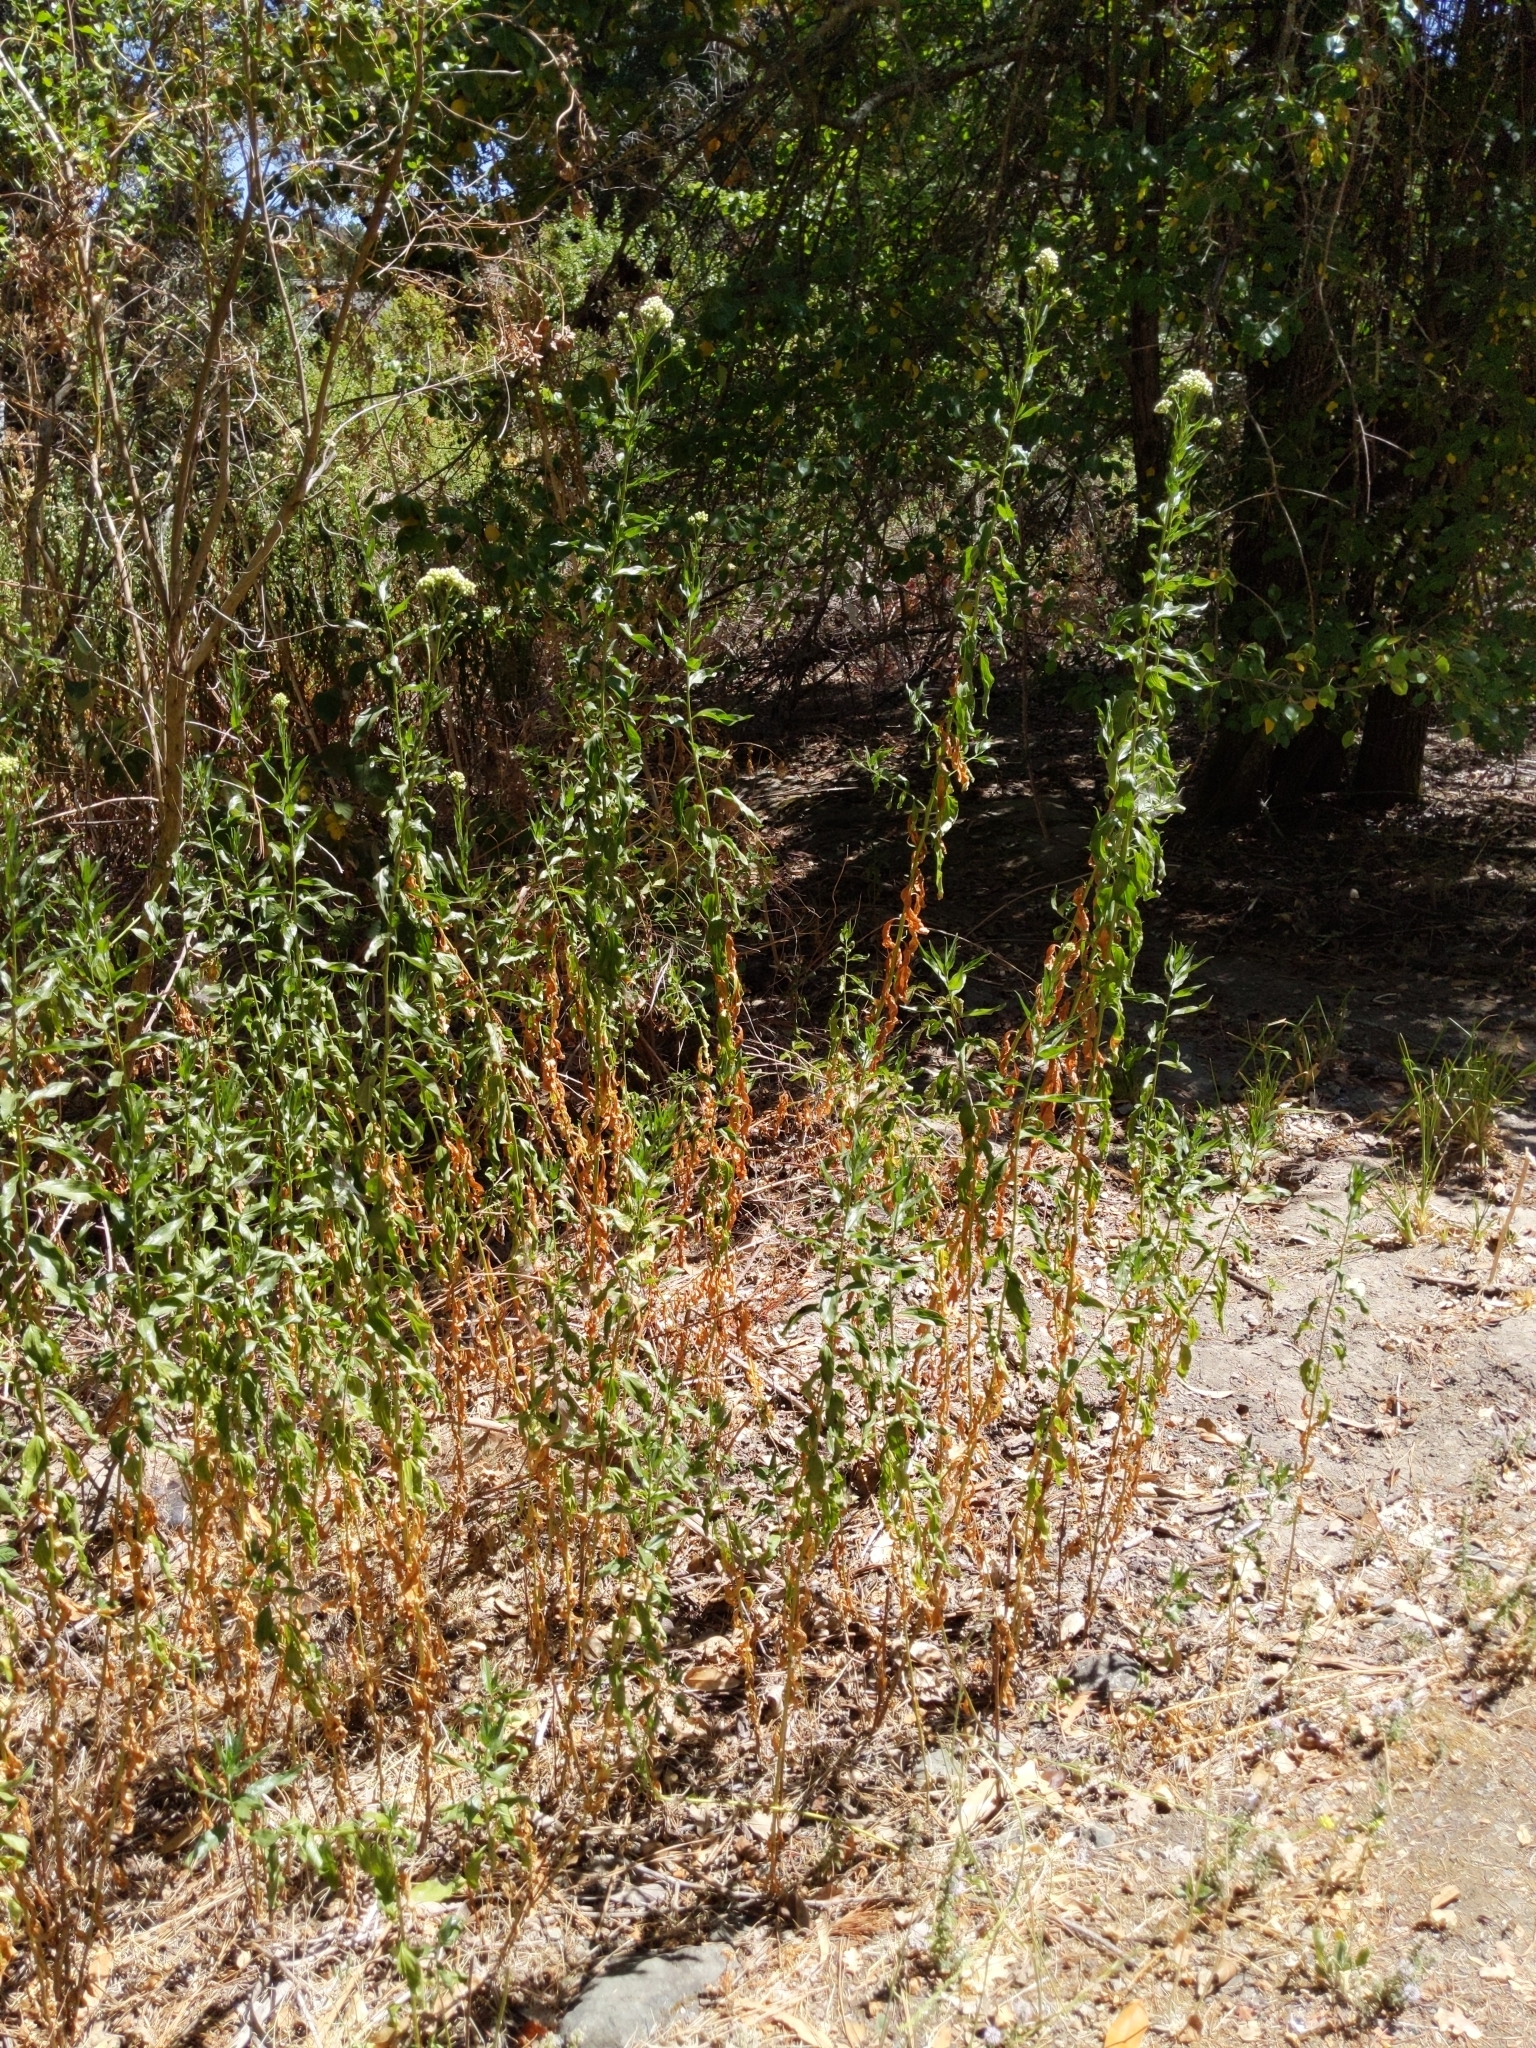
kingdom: Plantae
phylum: Tracheophyta
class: Magnoliopsida
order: Asterales
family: Asteraceae
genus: Baccharis
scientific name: Baccharis glutinosa
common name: Saltmarsh baccharis
